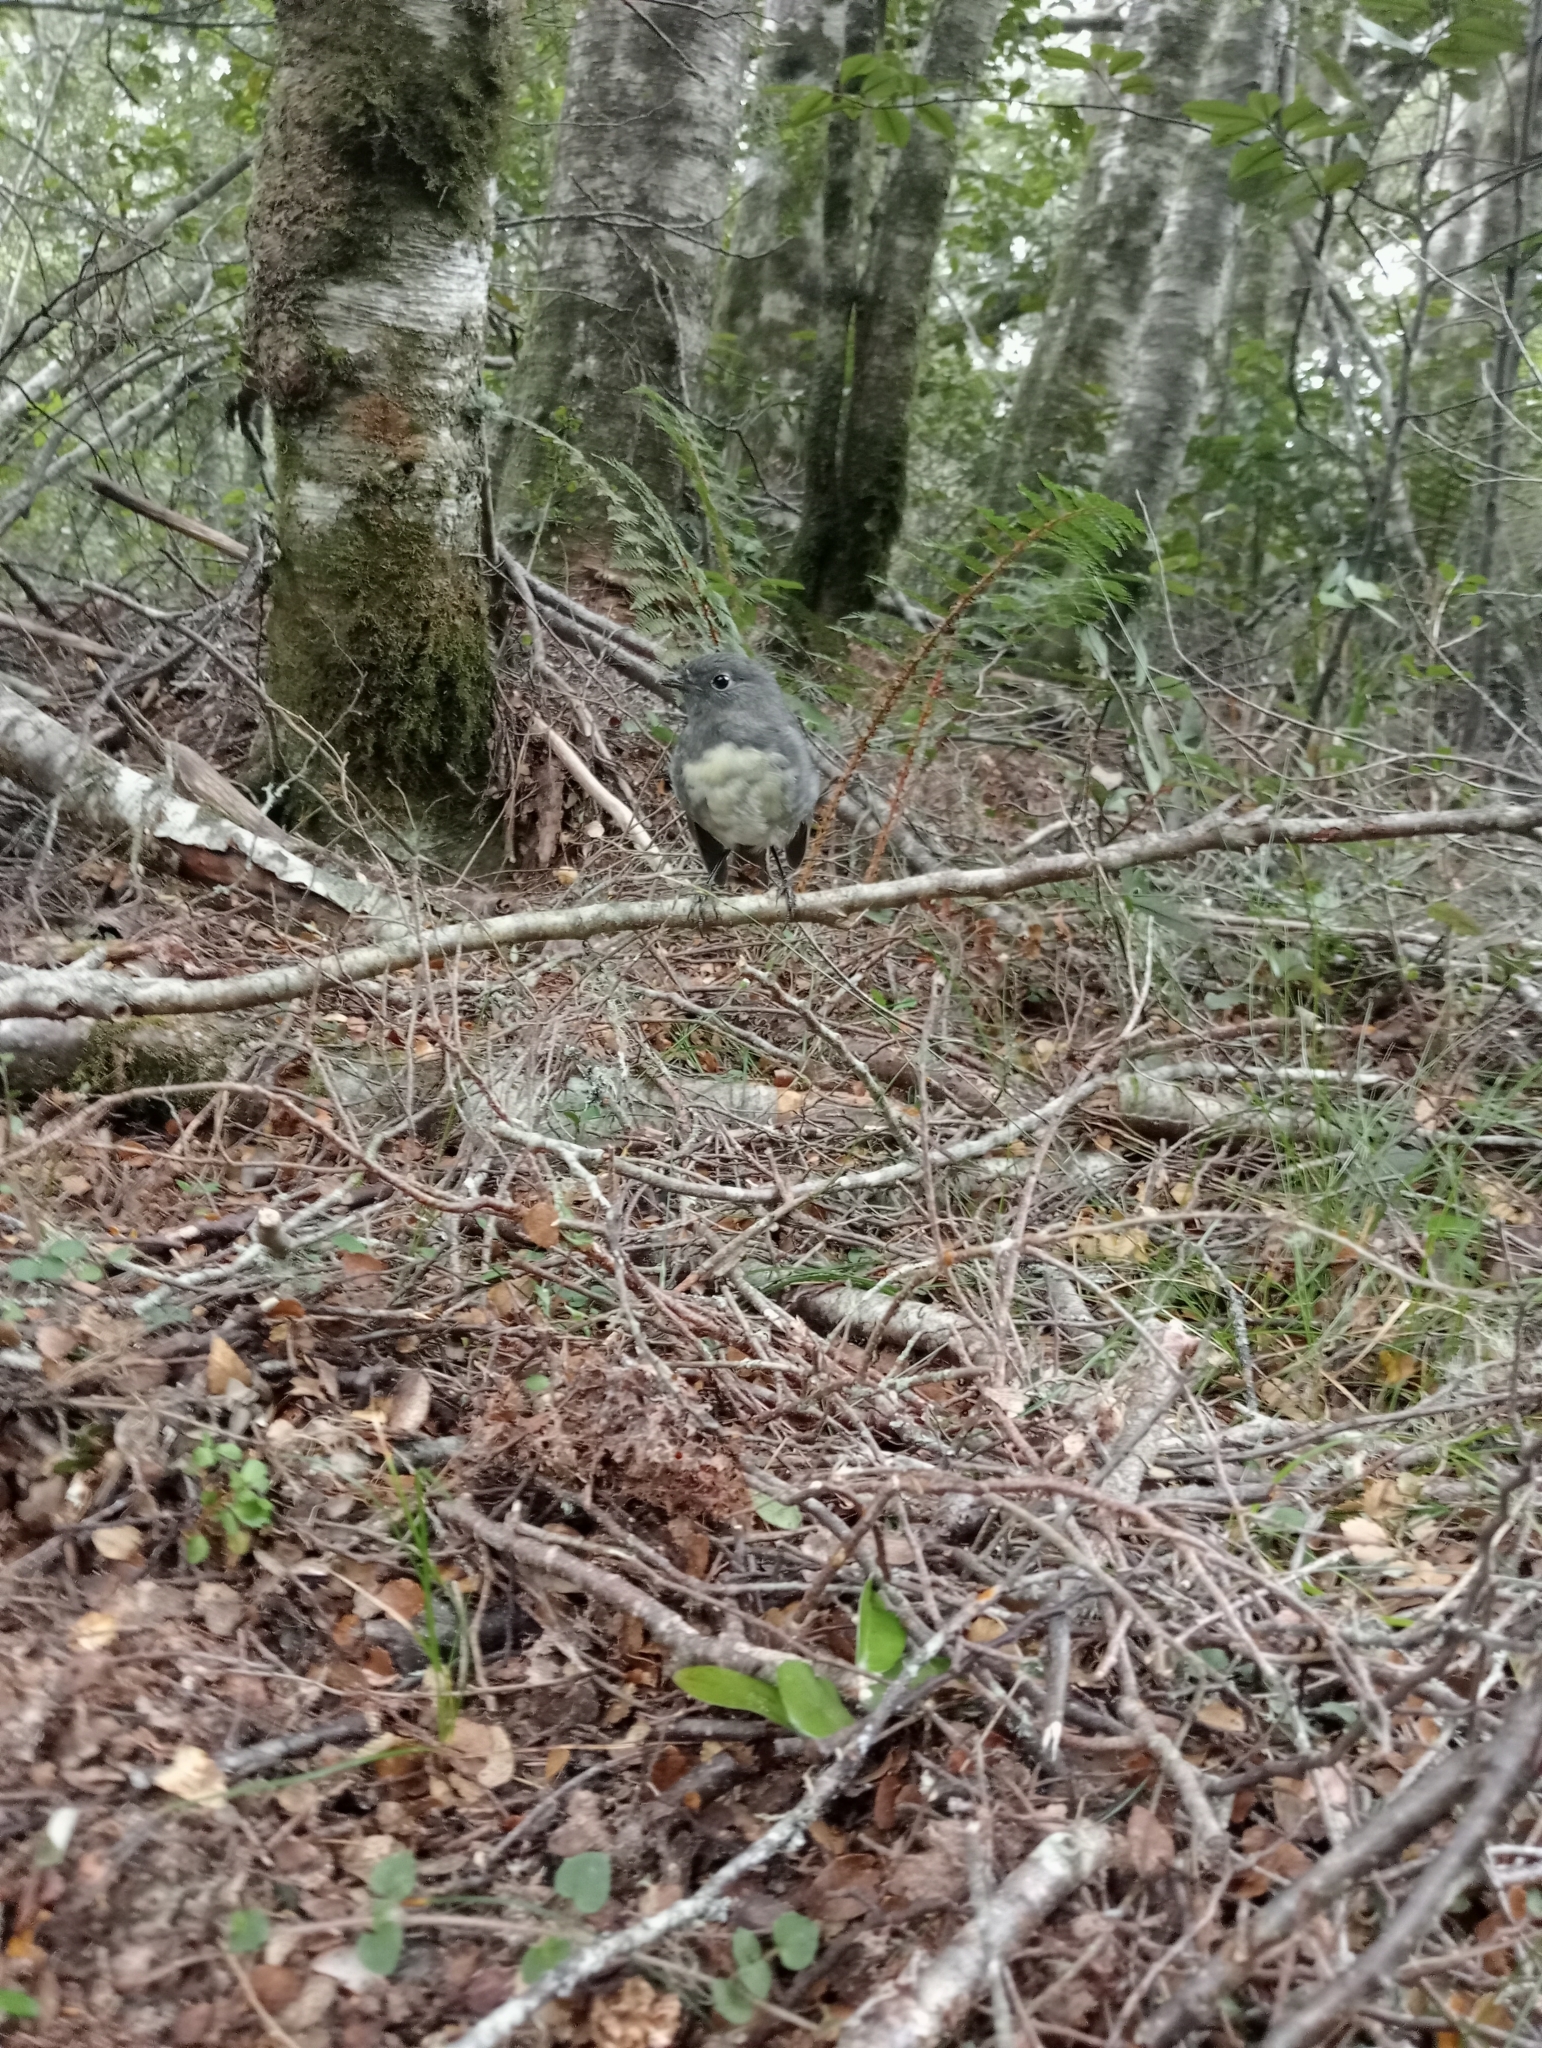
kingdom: Animalia
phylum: Chordata
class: Aves
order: Passeriformes
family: Petroicidae
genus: Petroica
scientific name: Petroica australis
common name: New zealand robin
